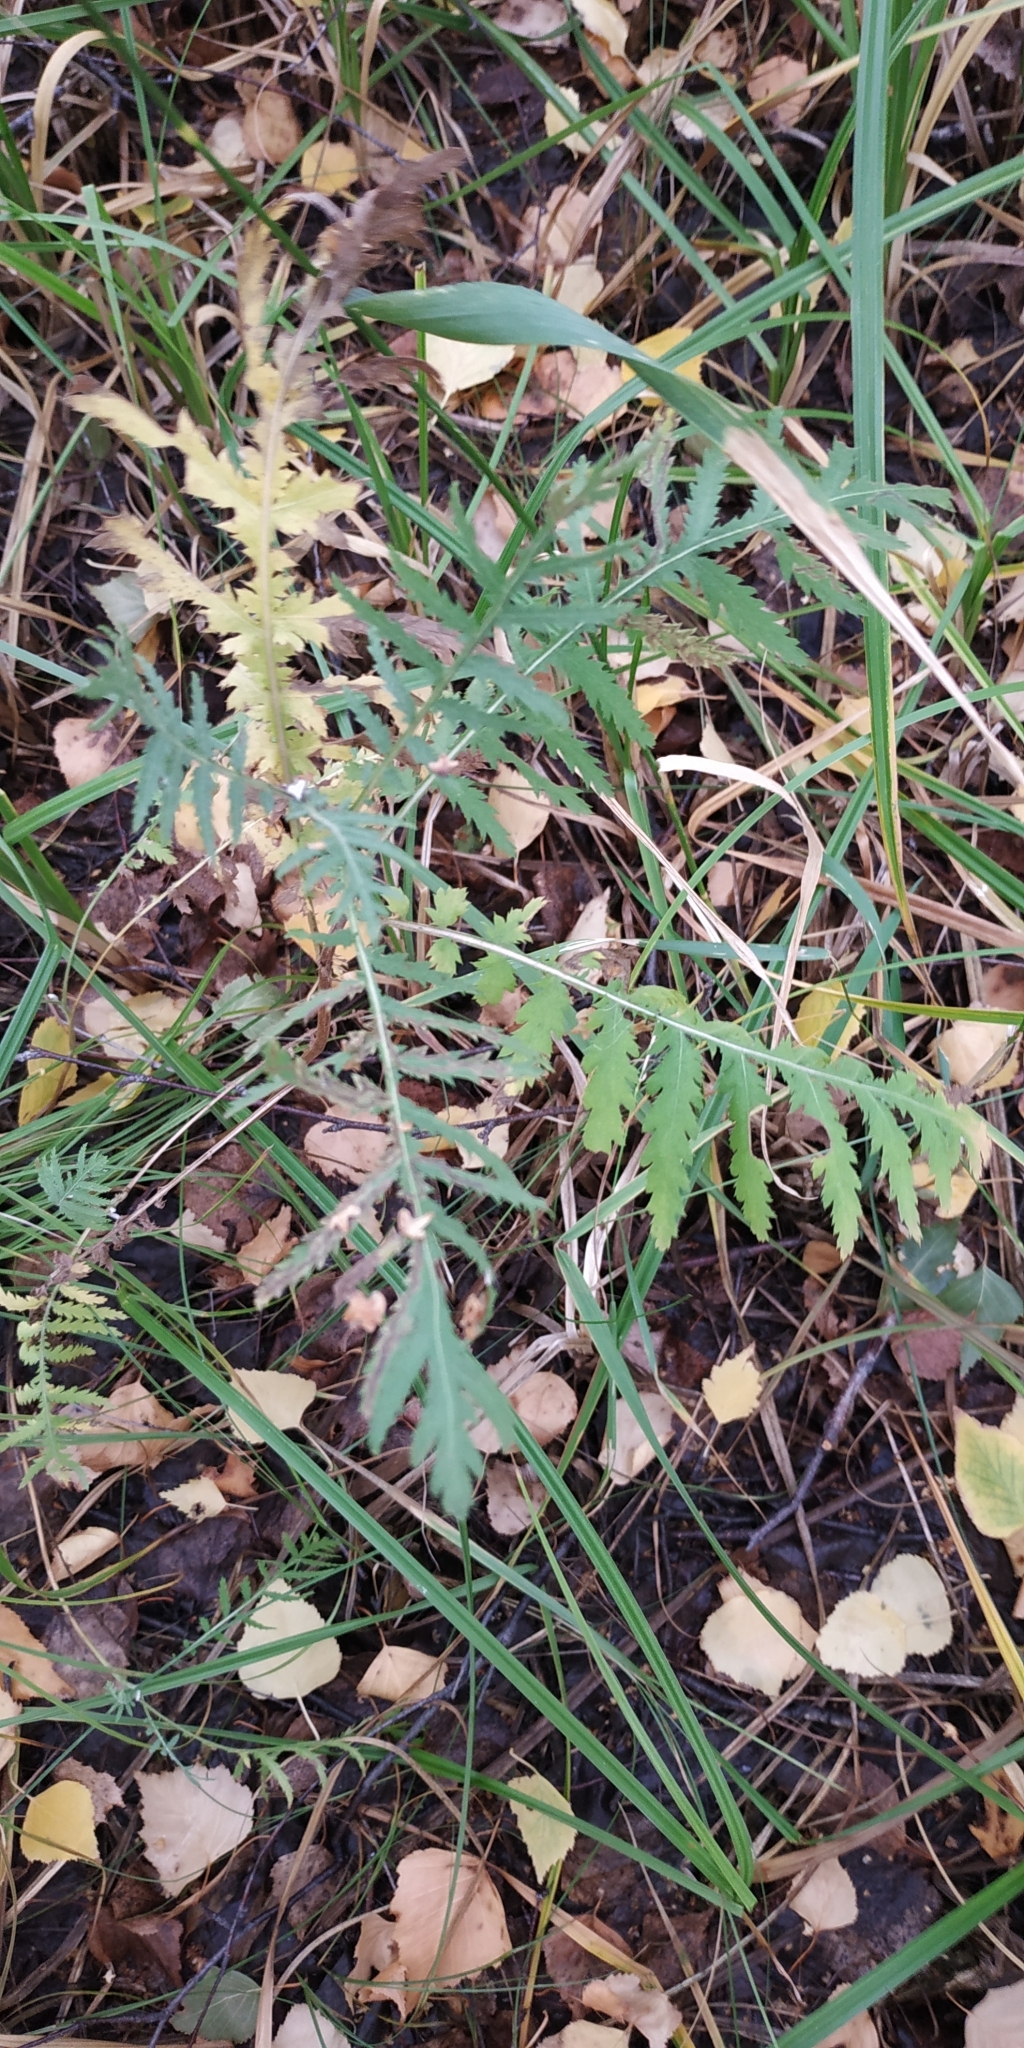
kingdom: Plantae
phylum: Tracheophyta
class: Magnoliopsida
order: Asterales
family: Asteraceae
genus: Tanacetum
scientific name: Tanacetum vulgare
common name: Common tansy
